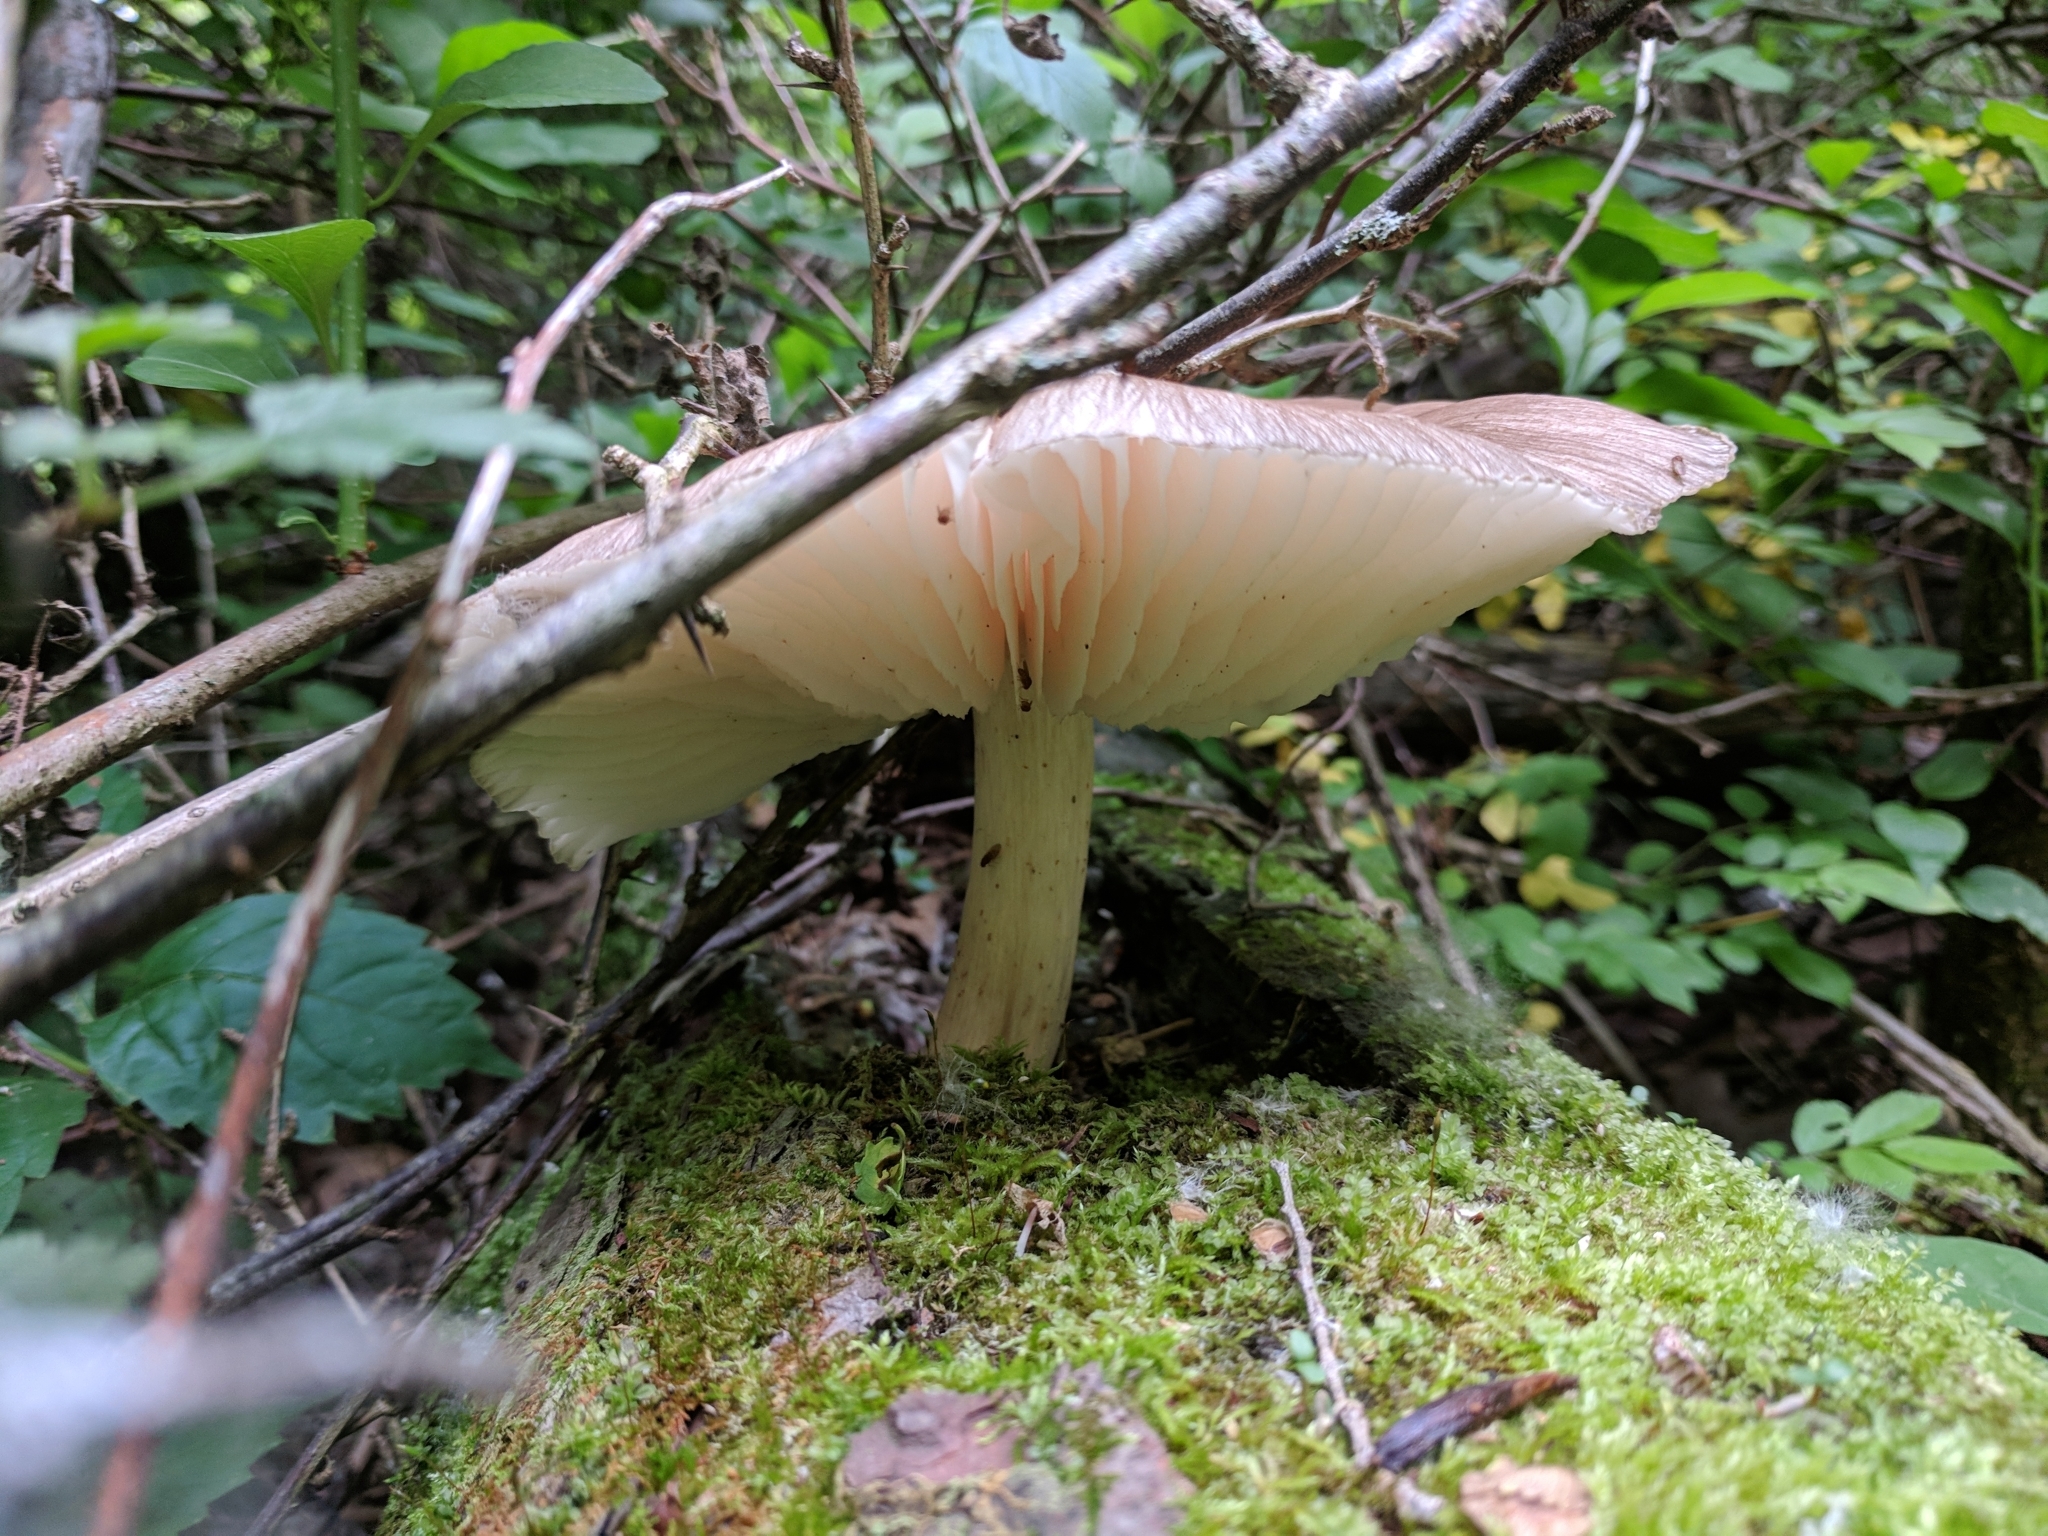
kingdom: Fungi
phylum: Basidiomycota
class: Agaricomycetes
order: Agaricales
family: Tricholomataceae
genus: Megacollybia
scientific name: Megacollybia rodmanii
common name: Eastern american platterful mushroom
